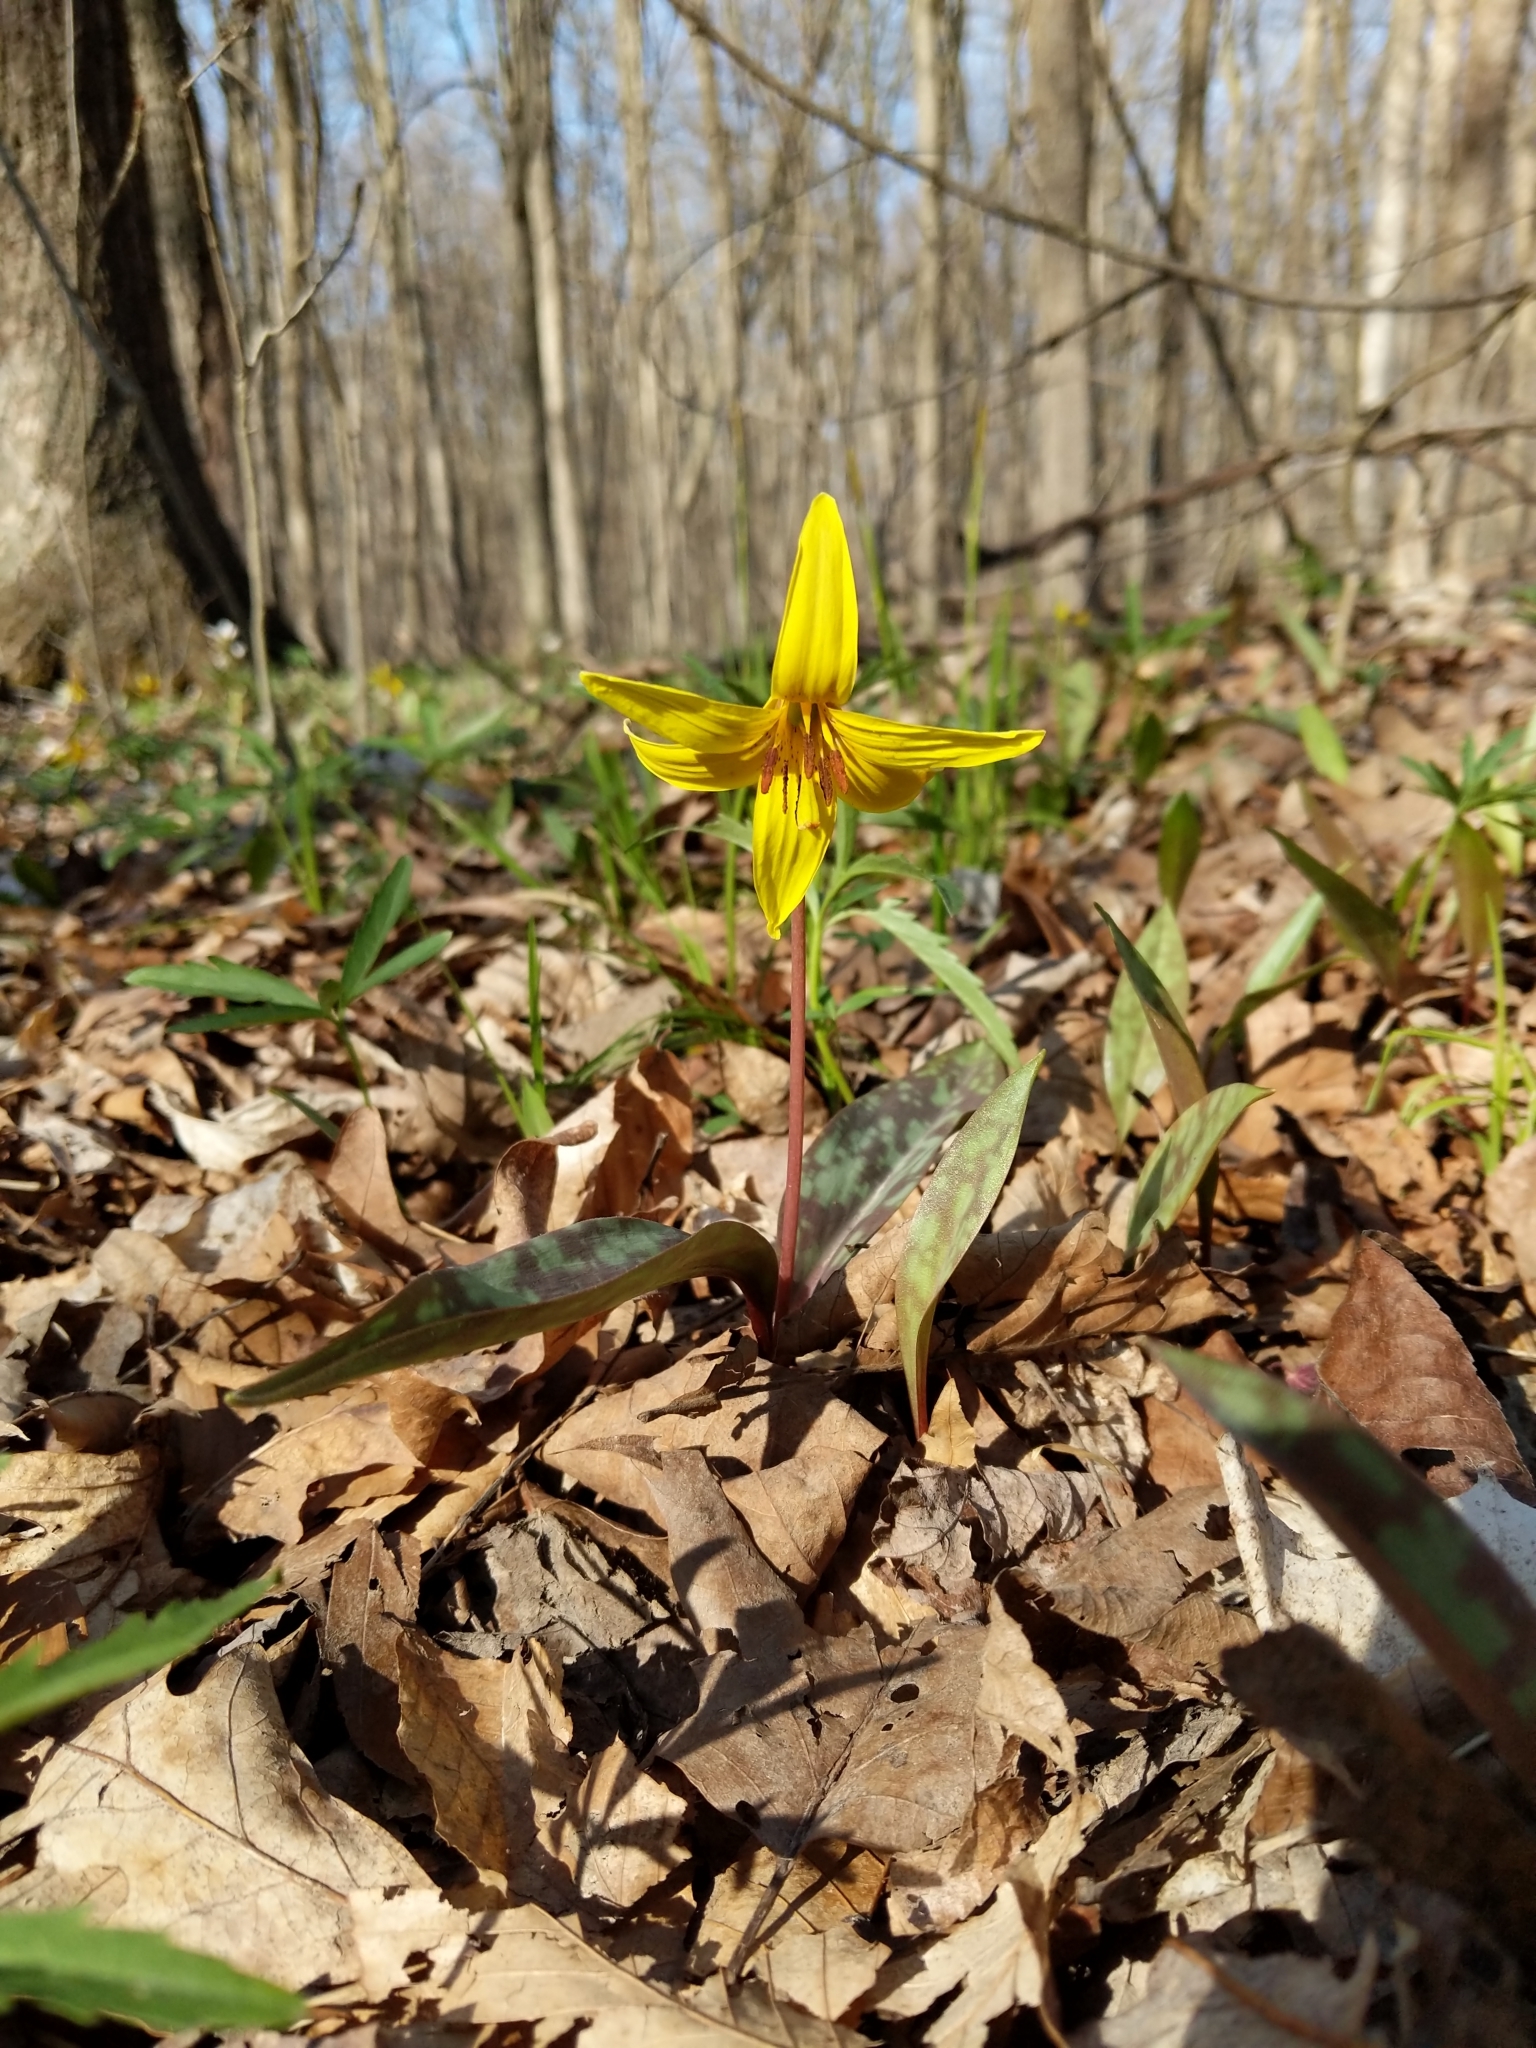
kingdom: Plantae
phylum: Tracheophyta
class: Liliopsida
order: Liliales
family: Liliaceae
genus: Erythronium
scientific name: Erythronium americanum
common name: Yellow adder's-tongue
